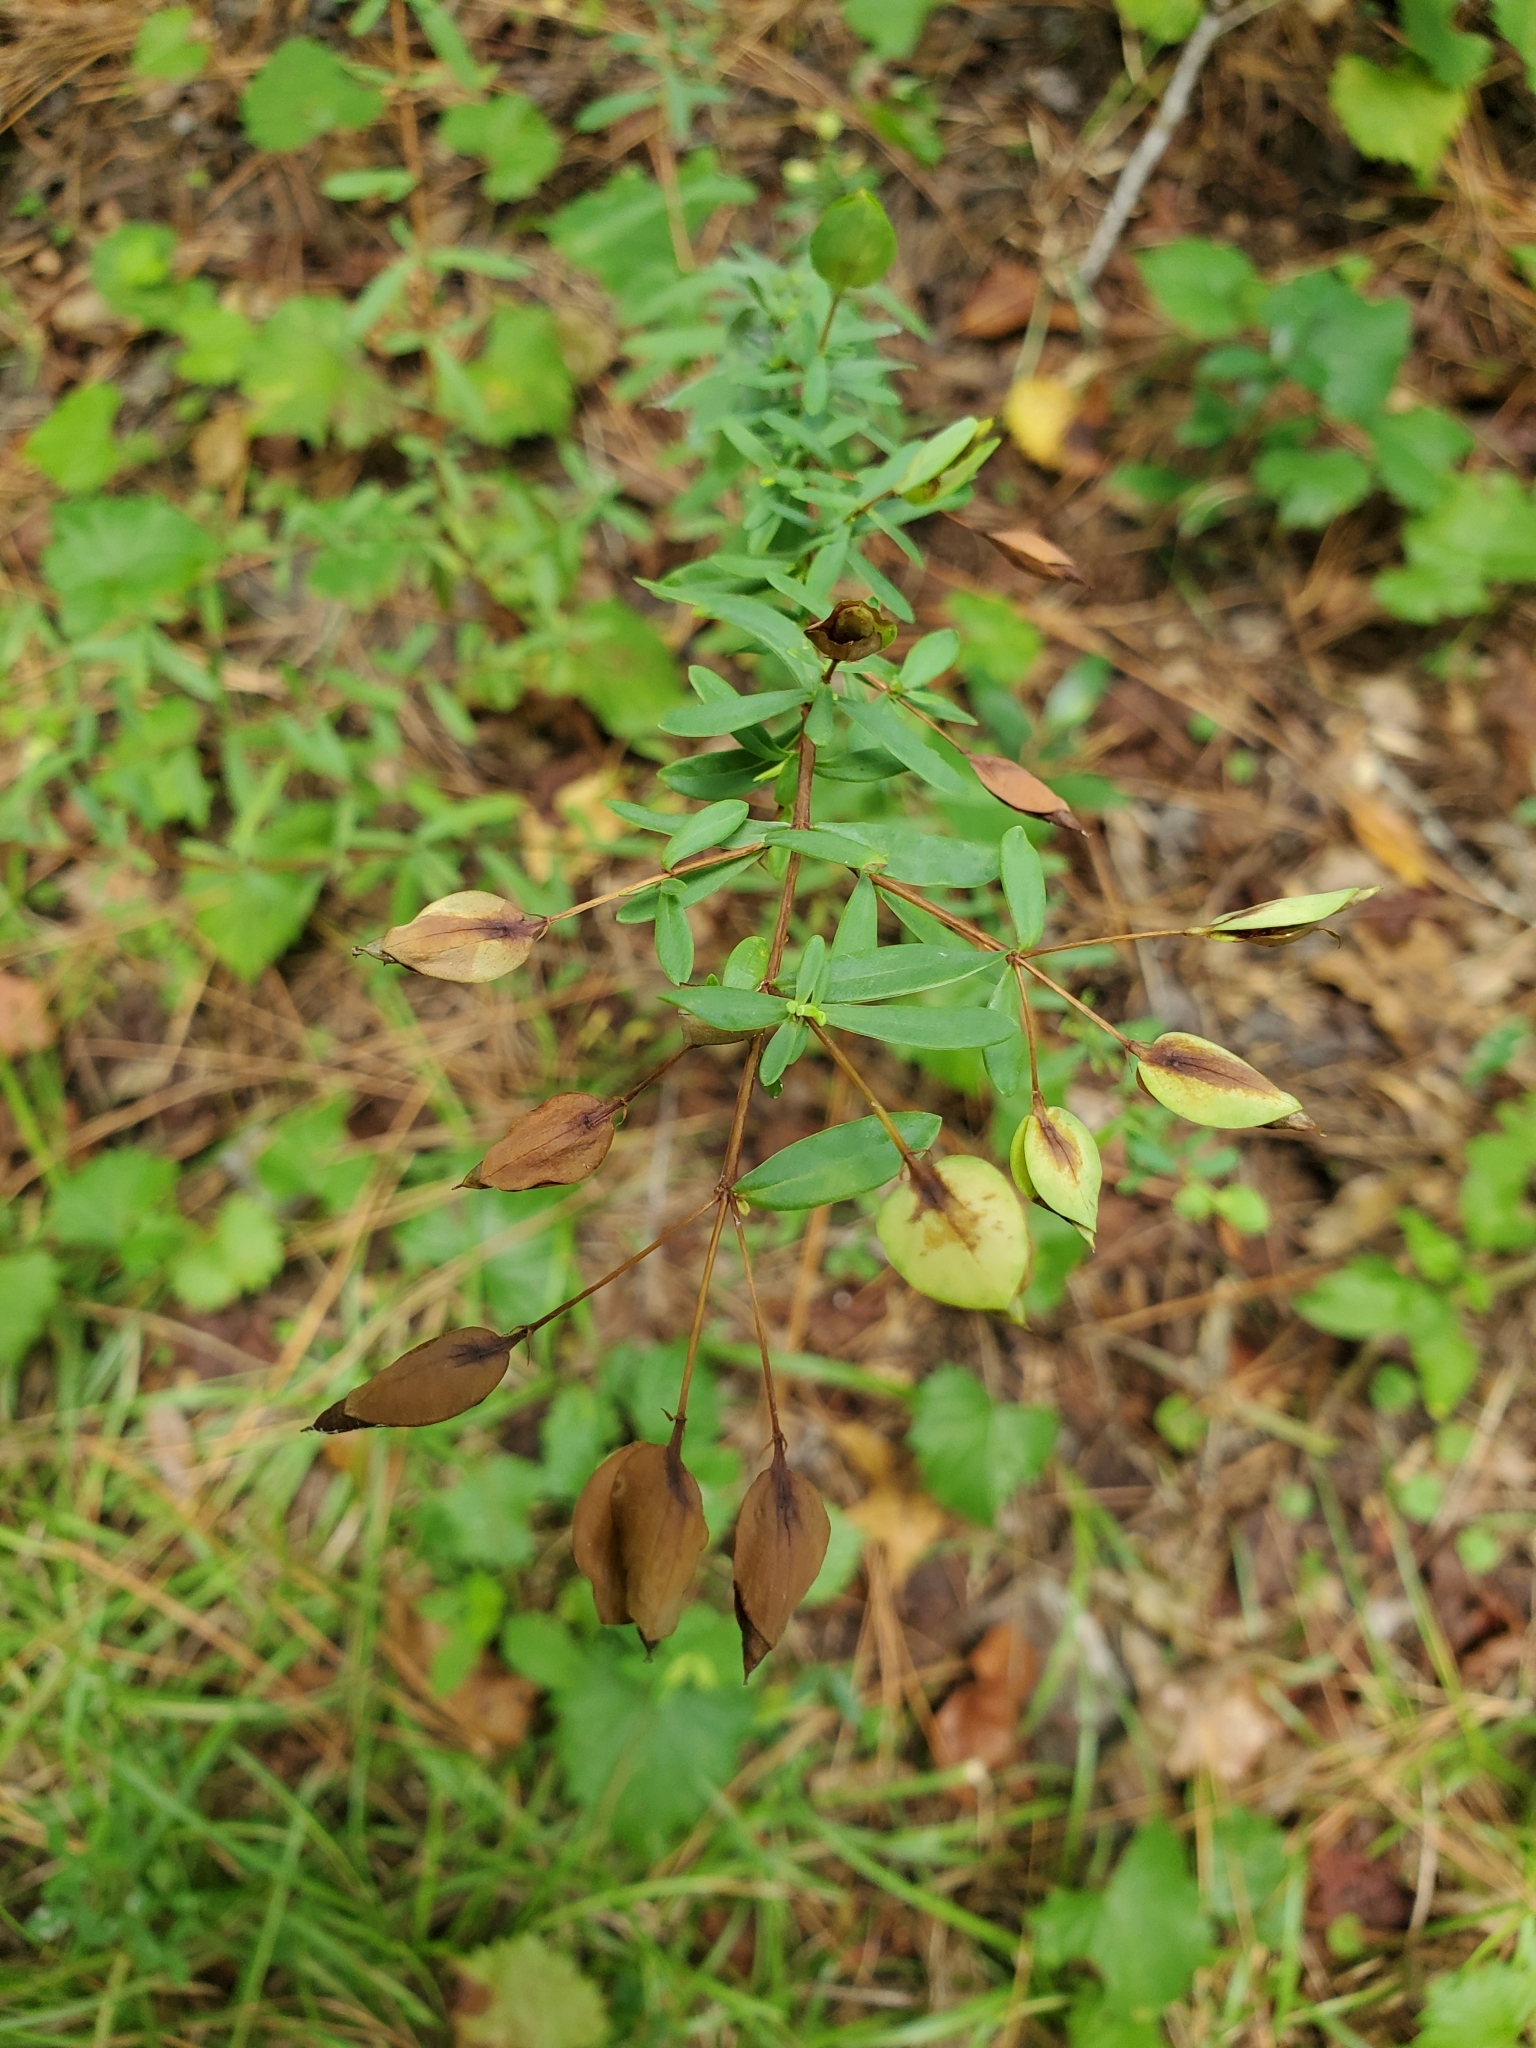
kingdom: Plantae
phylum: Tracheophyta
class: Magnoliopsida
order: Malpighiales
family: Hypericaceae
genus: Hypericum
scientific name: Hypericum hypericoides
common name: St. andrew's cross
